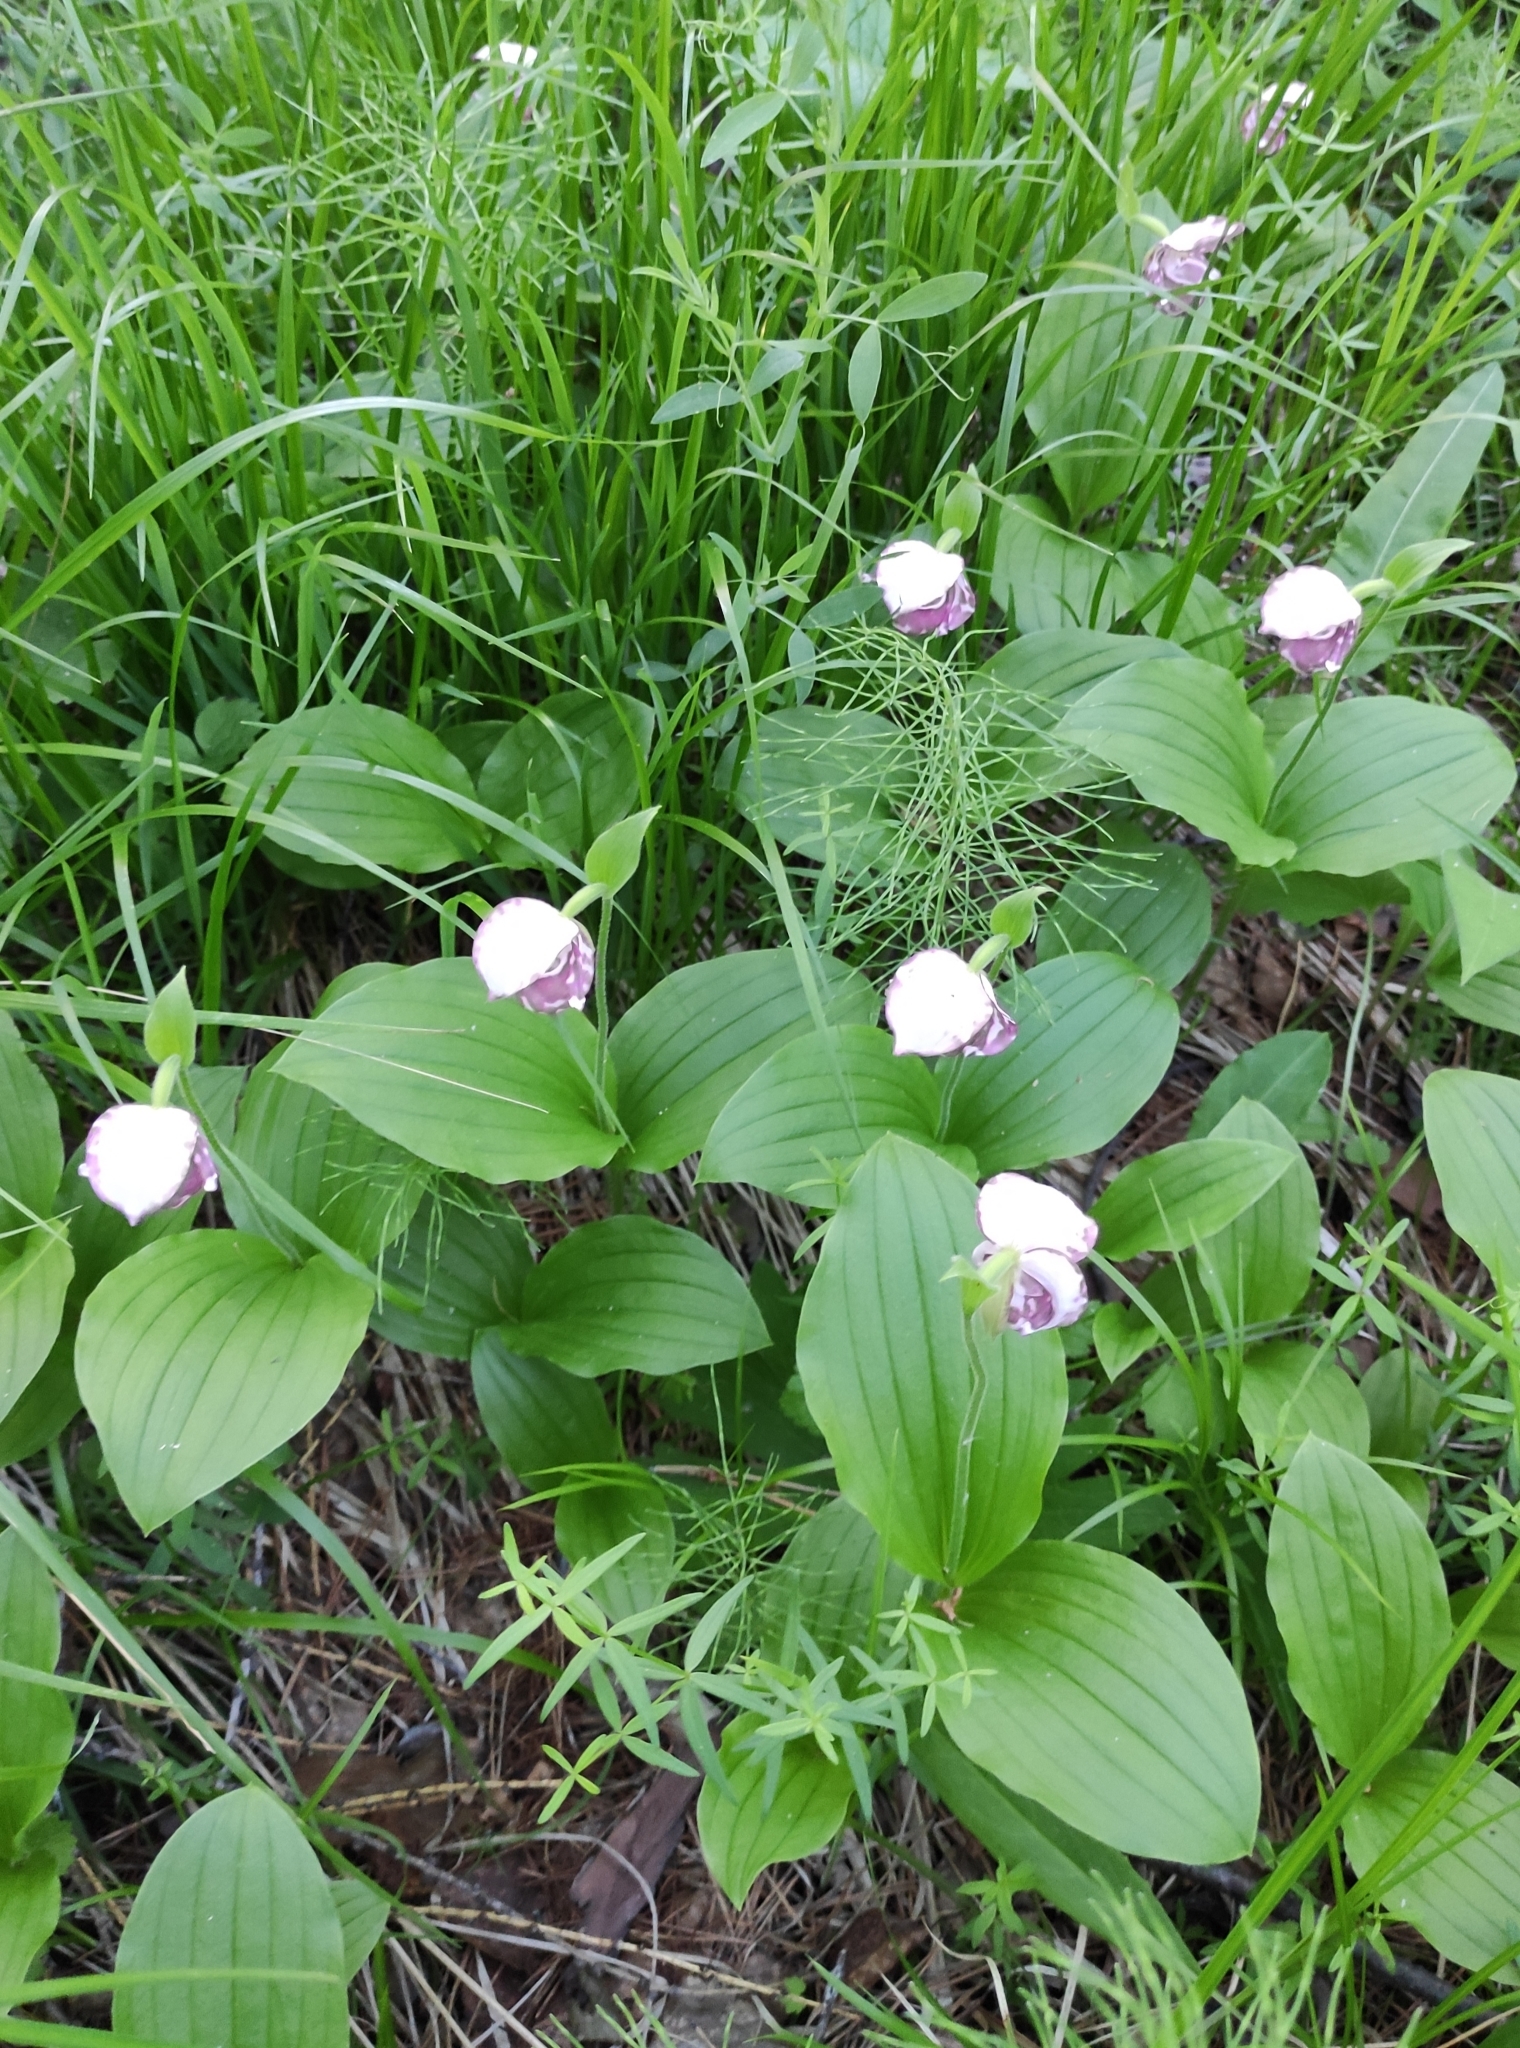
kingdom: Plantae
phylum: Tracheophyta
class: Liliopsida
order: Asparagales
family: Orchidaceae
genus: Cypripedium
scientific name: Cypripedium guttatum
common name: Pink lady slipper
